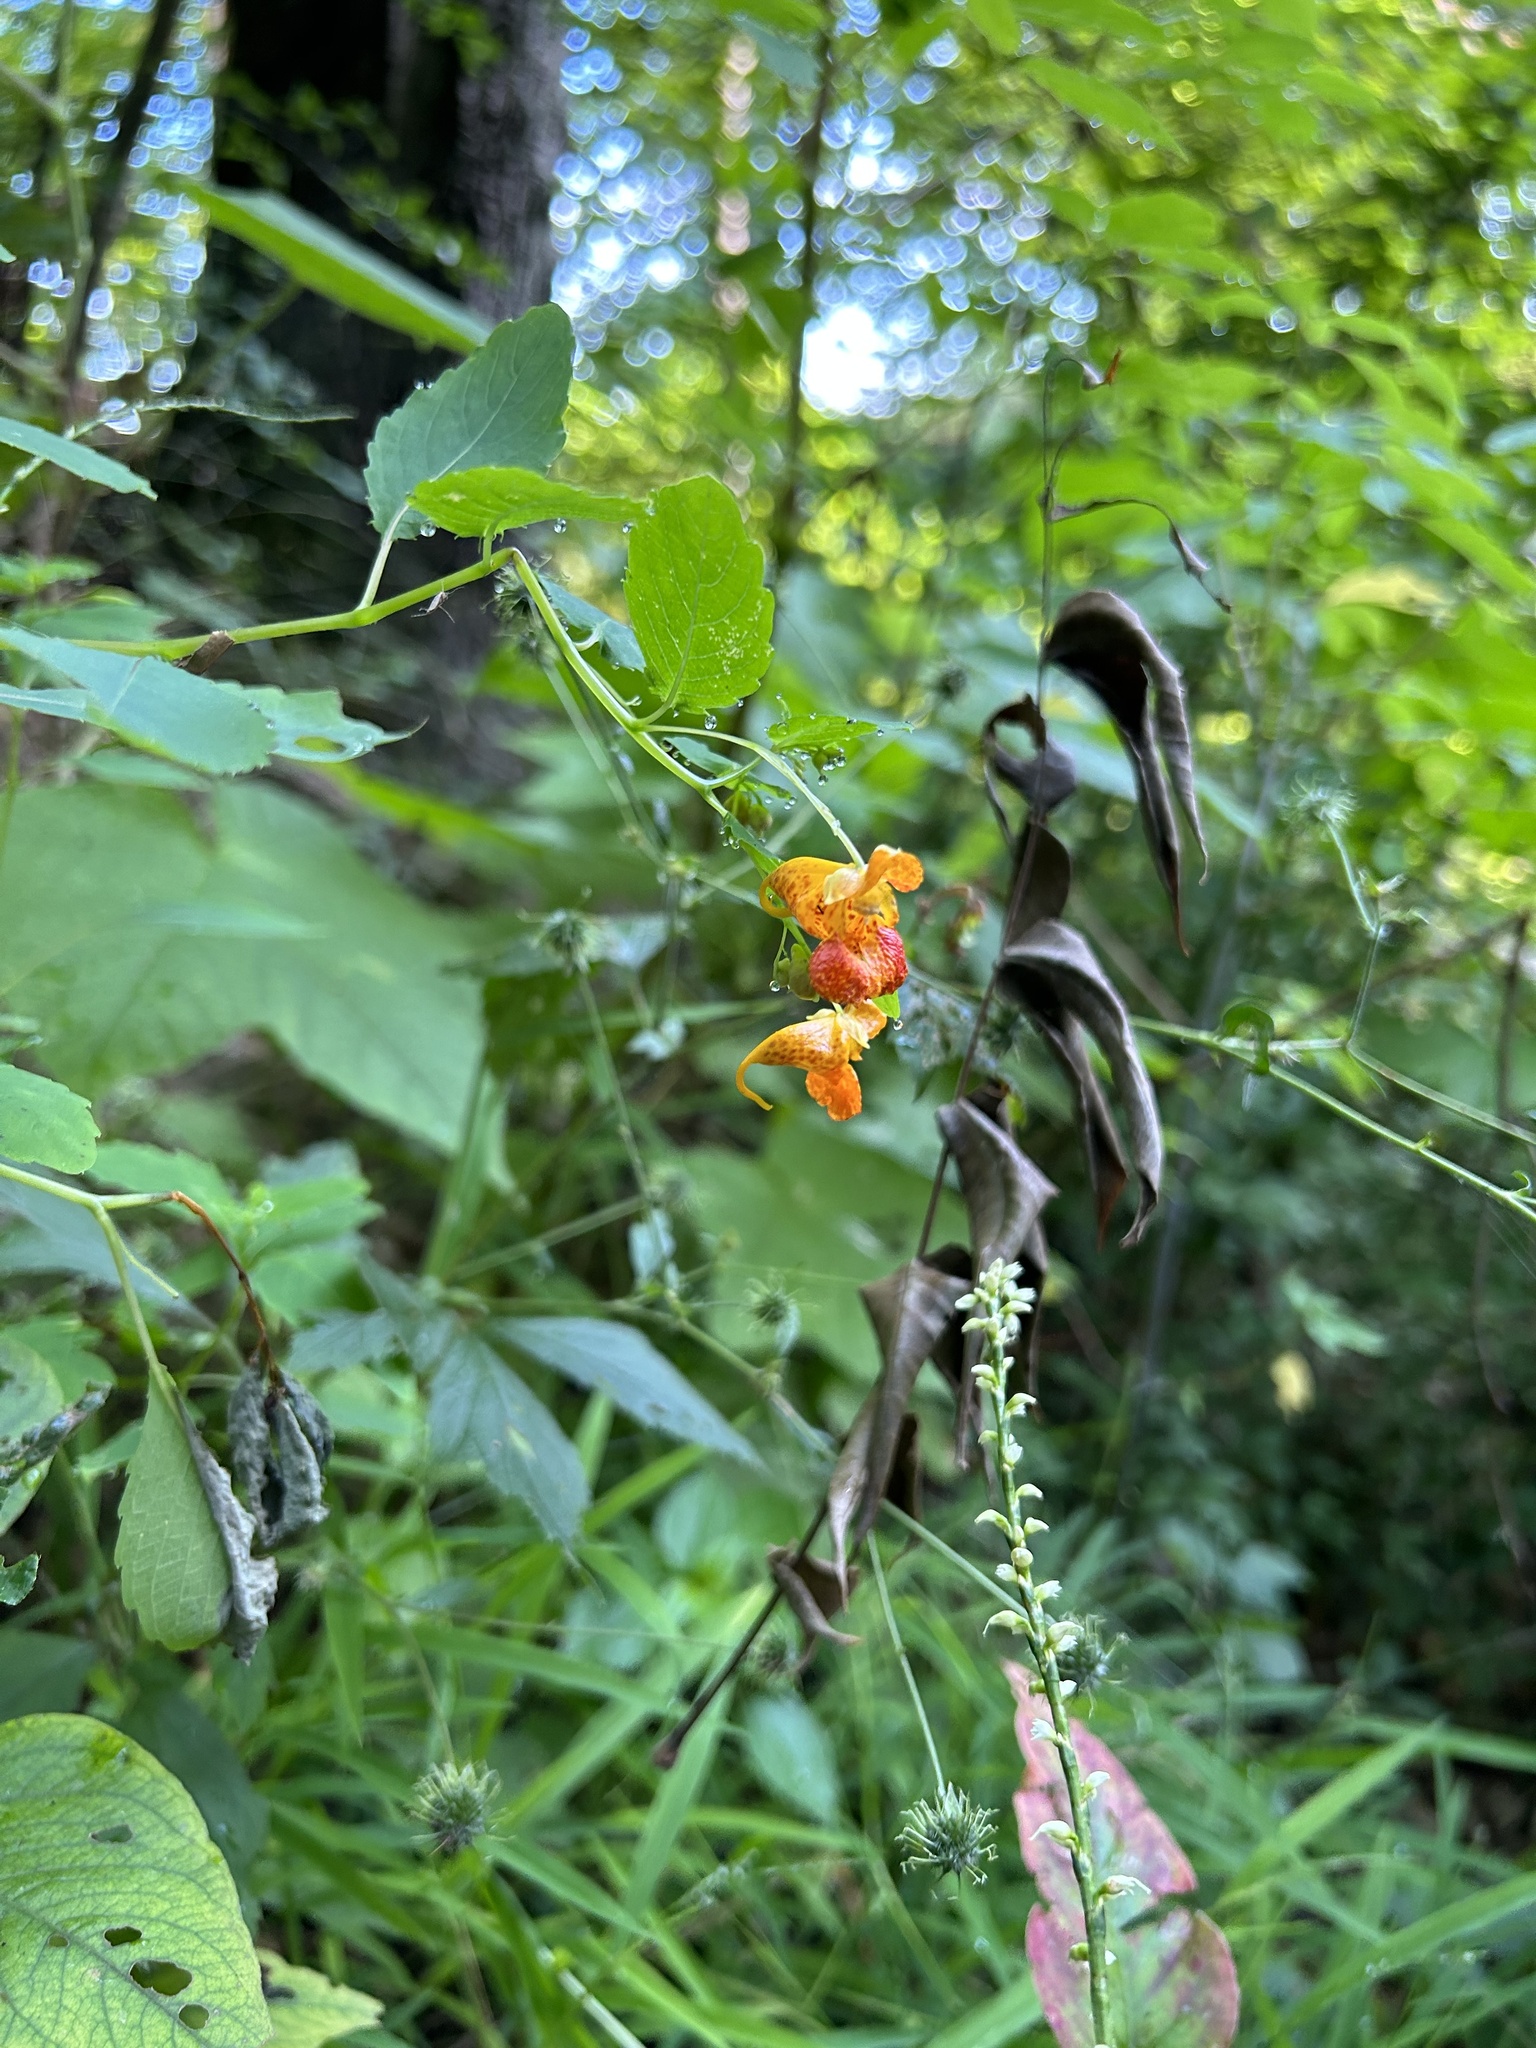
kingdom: Plantae
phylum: Tracheophyta
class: Magnoliopsida
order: Ericales
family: Balsaminaceae
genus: Impatiens
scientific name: Impatiens capensis
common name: Orange balsam
